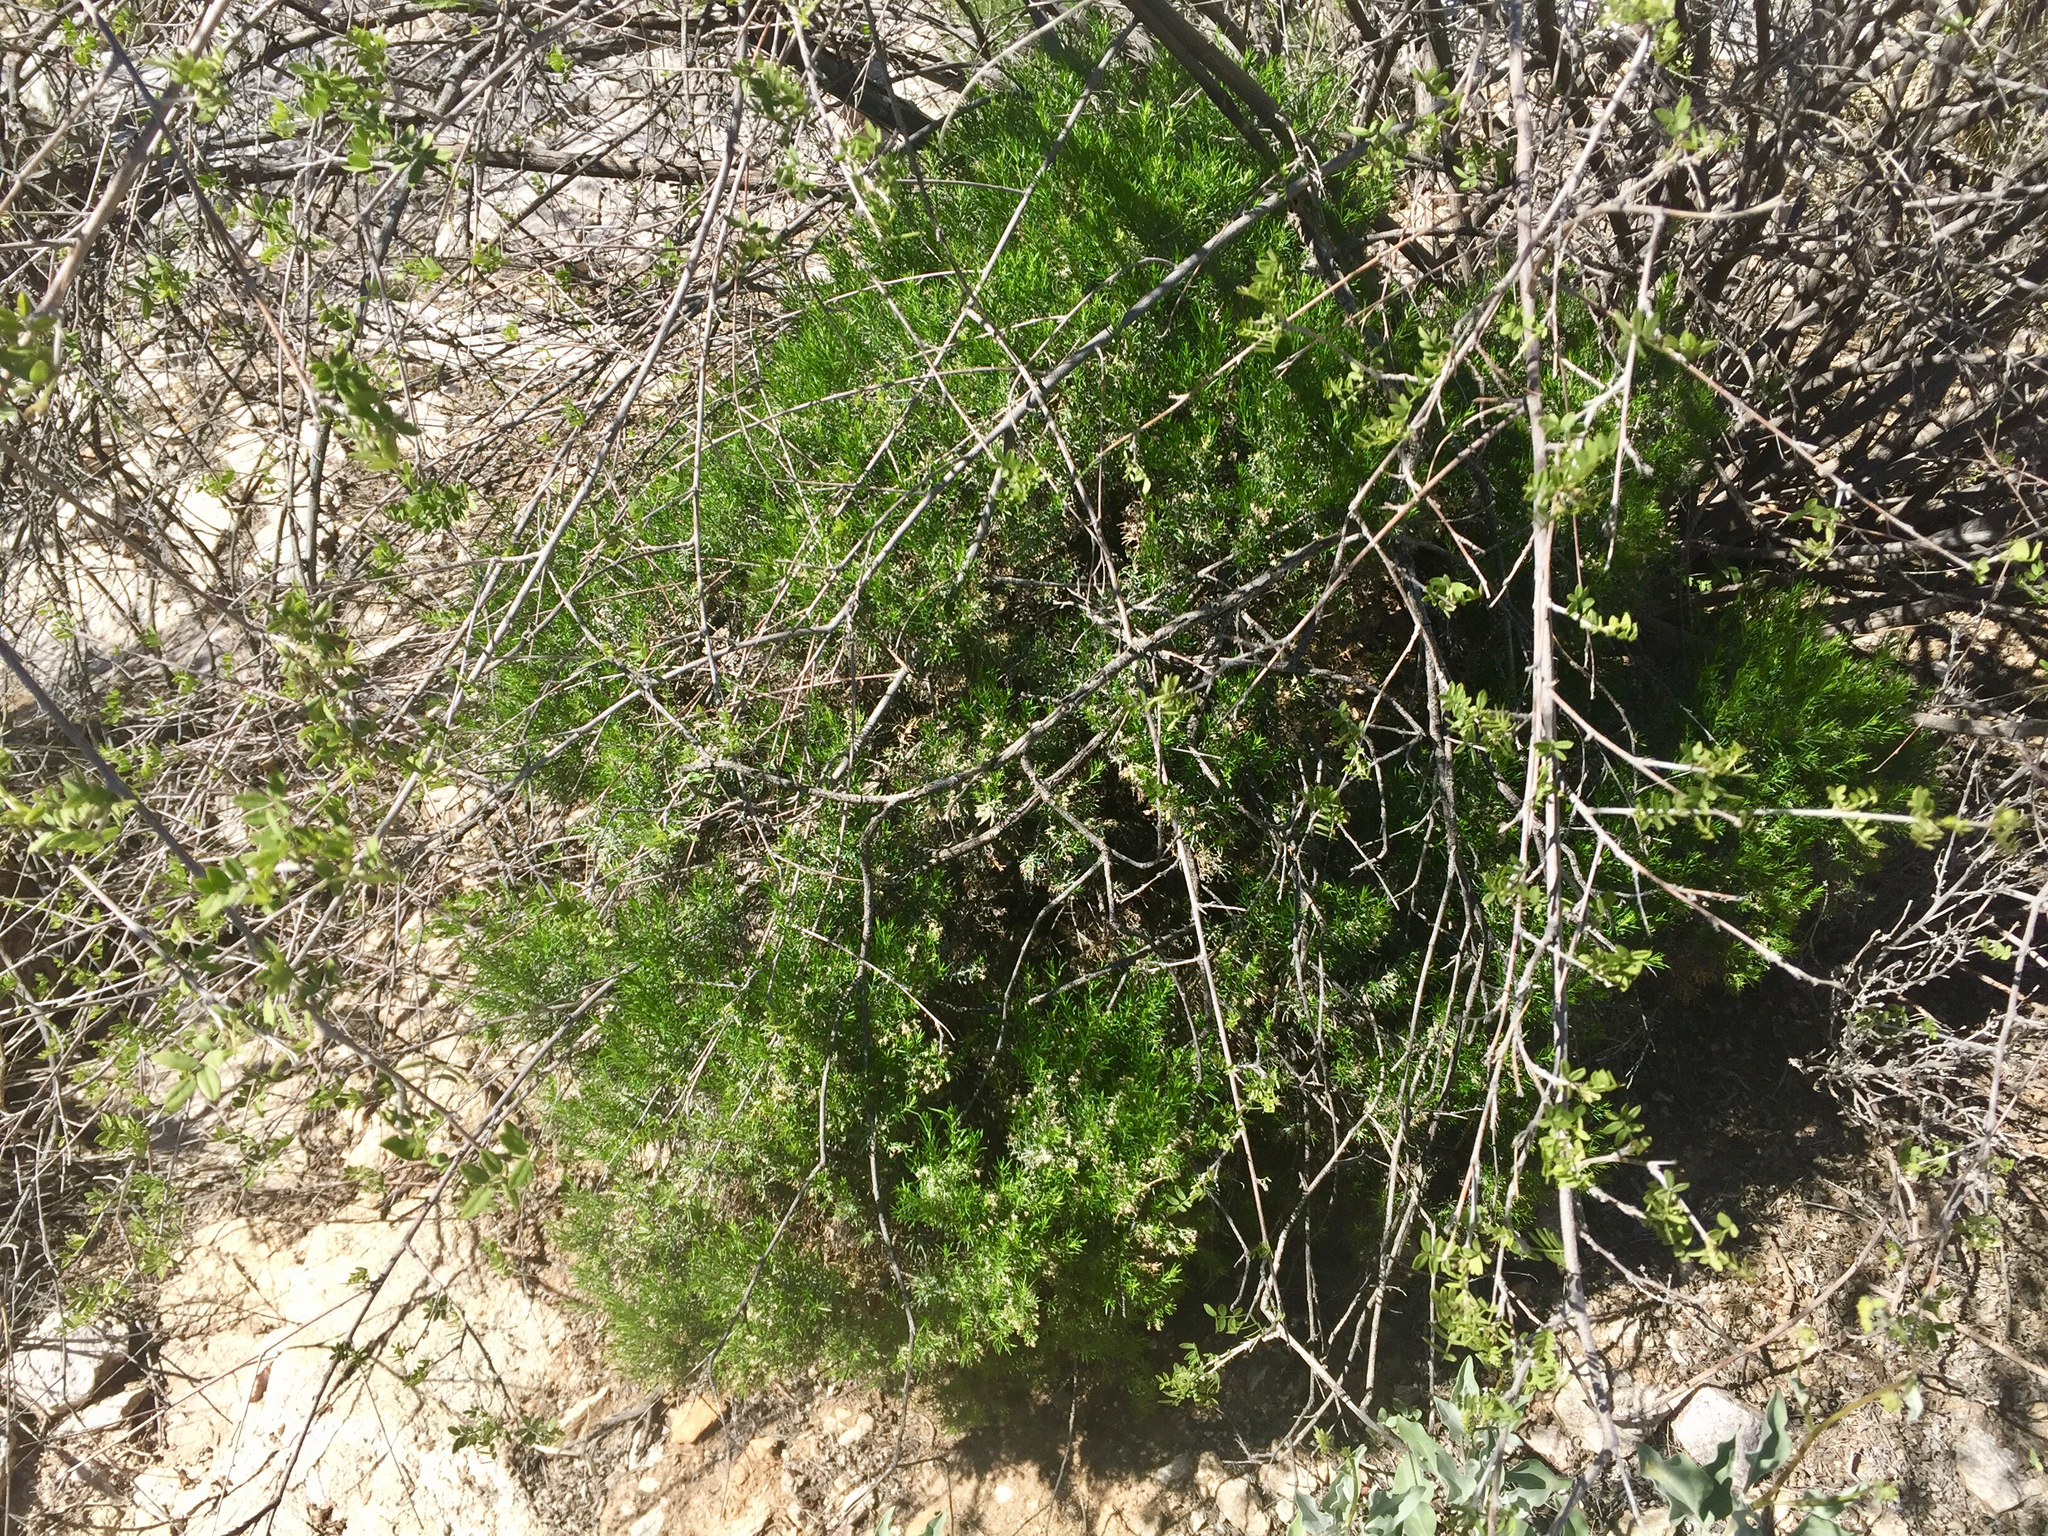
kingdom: Plantae
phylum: Tracheophyta
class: Magnoliopsida
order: Asterales
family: Asteraceae
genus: Gutierrezia
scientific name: Gutierrezia sarothrae
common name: Broom snakeweed
